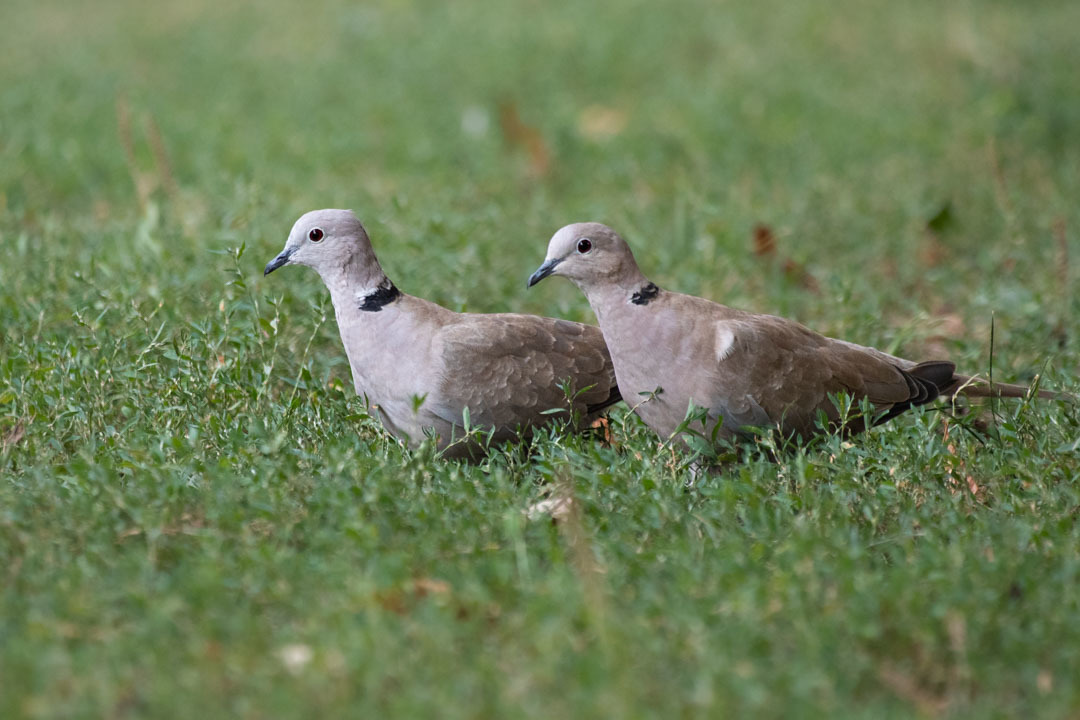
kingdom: Animalia
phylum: Chordata
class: Aves
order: Columbiformes
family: Columbidae
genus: Streptopelia
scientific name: Streptopelia decaocto
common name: Eurasian collared dove
